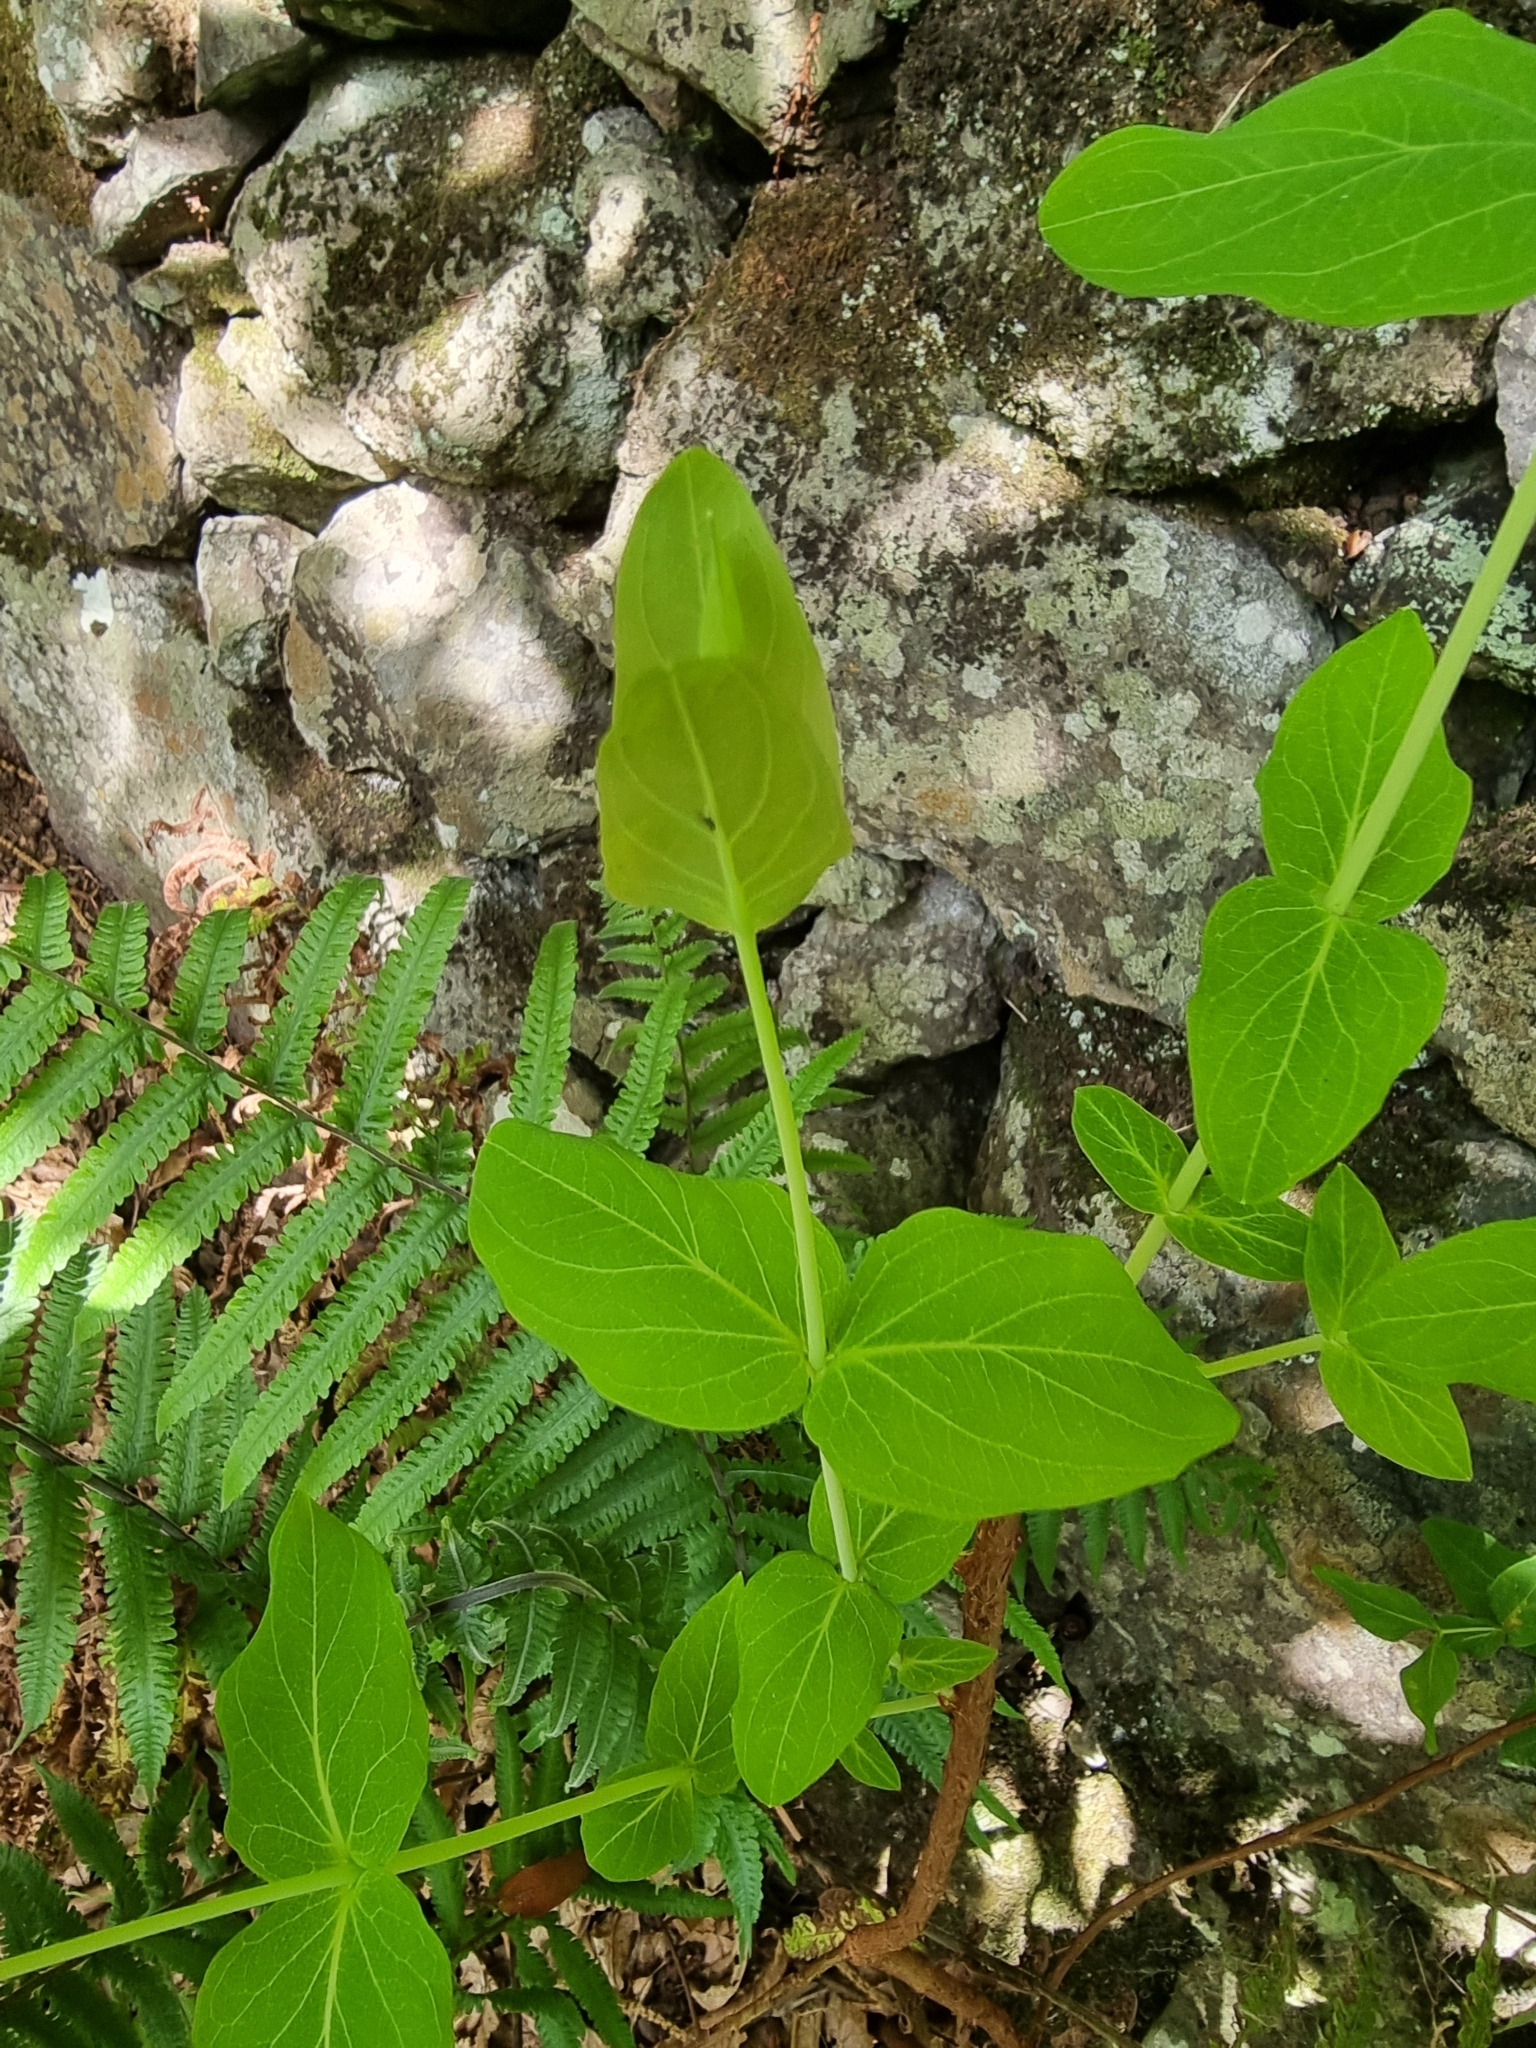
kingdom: Plantae
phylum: Tracheophyta
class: Magnoliopsida
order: Malpighiales
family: Hypericaceae
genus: Hypericum
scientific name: Hypericum grandifolium
